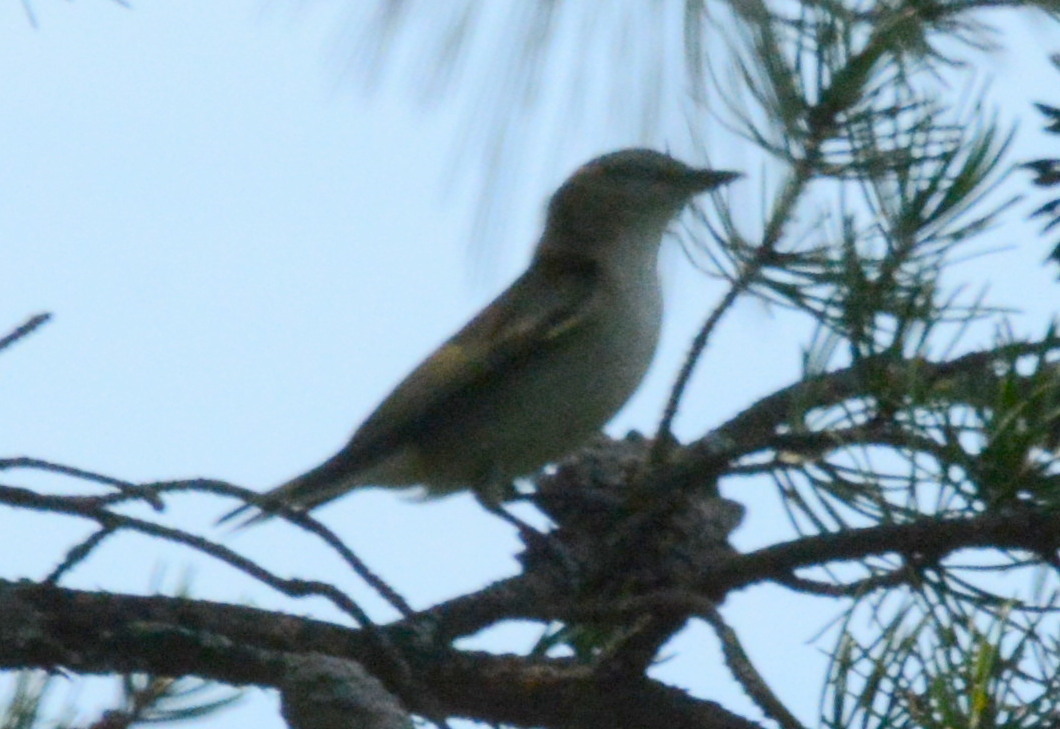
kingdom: Animalia
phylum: Chordata
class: Aves
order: Passeriformes
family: Vireonidae
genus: Vireo
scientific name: Vireo olivaceus
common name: Red-eyed vireo
